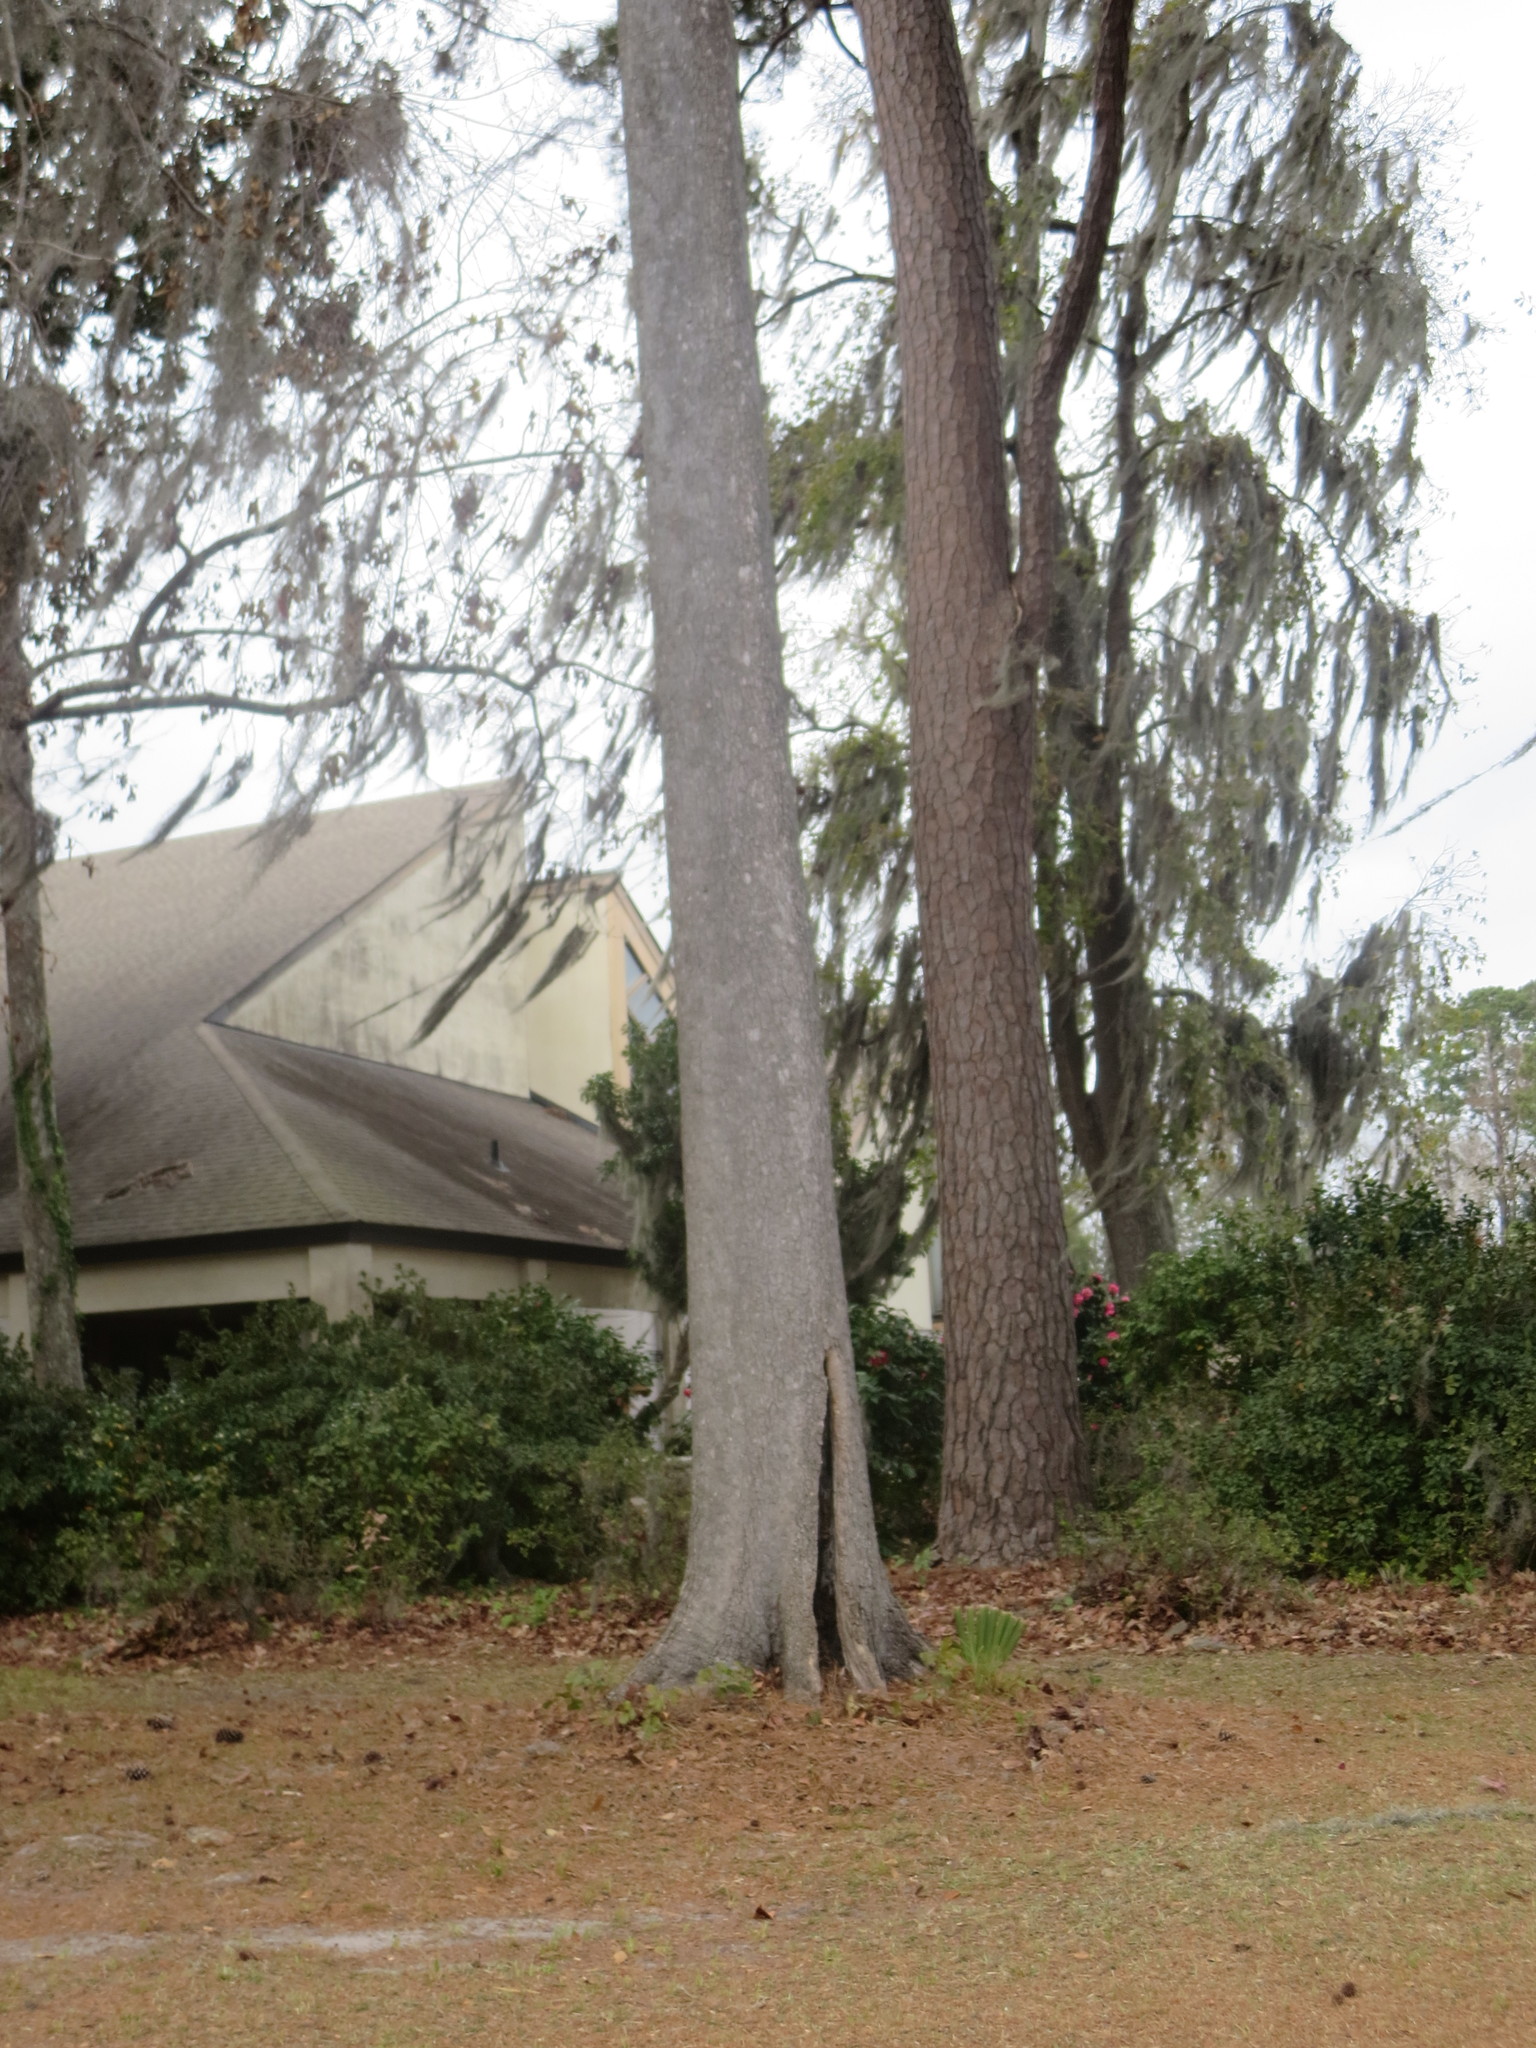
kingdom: Plantae
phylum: Tracheophyta
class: Magnoliopsida
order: Magnoliales
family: Magnoliaceae
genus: Magnolia
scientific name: Magnolia grandiflora
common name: Southern magnolia
